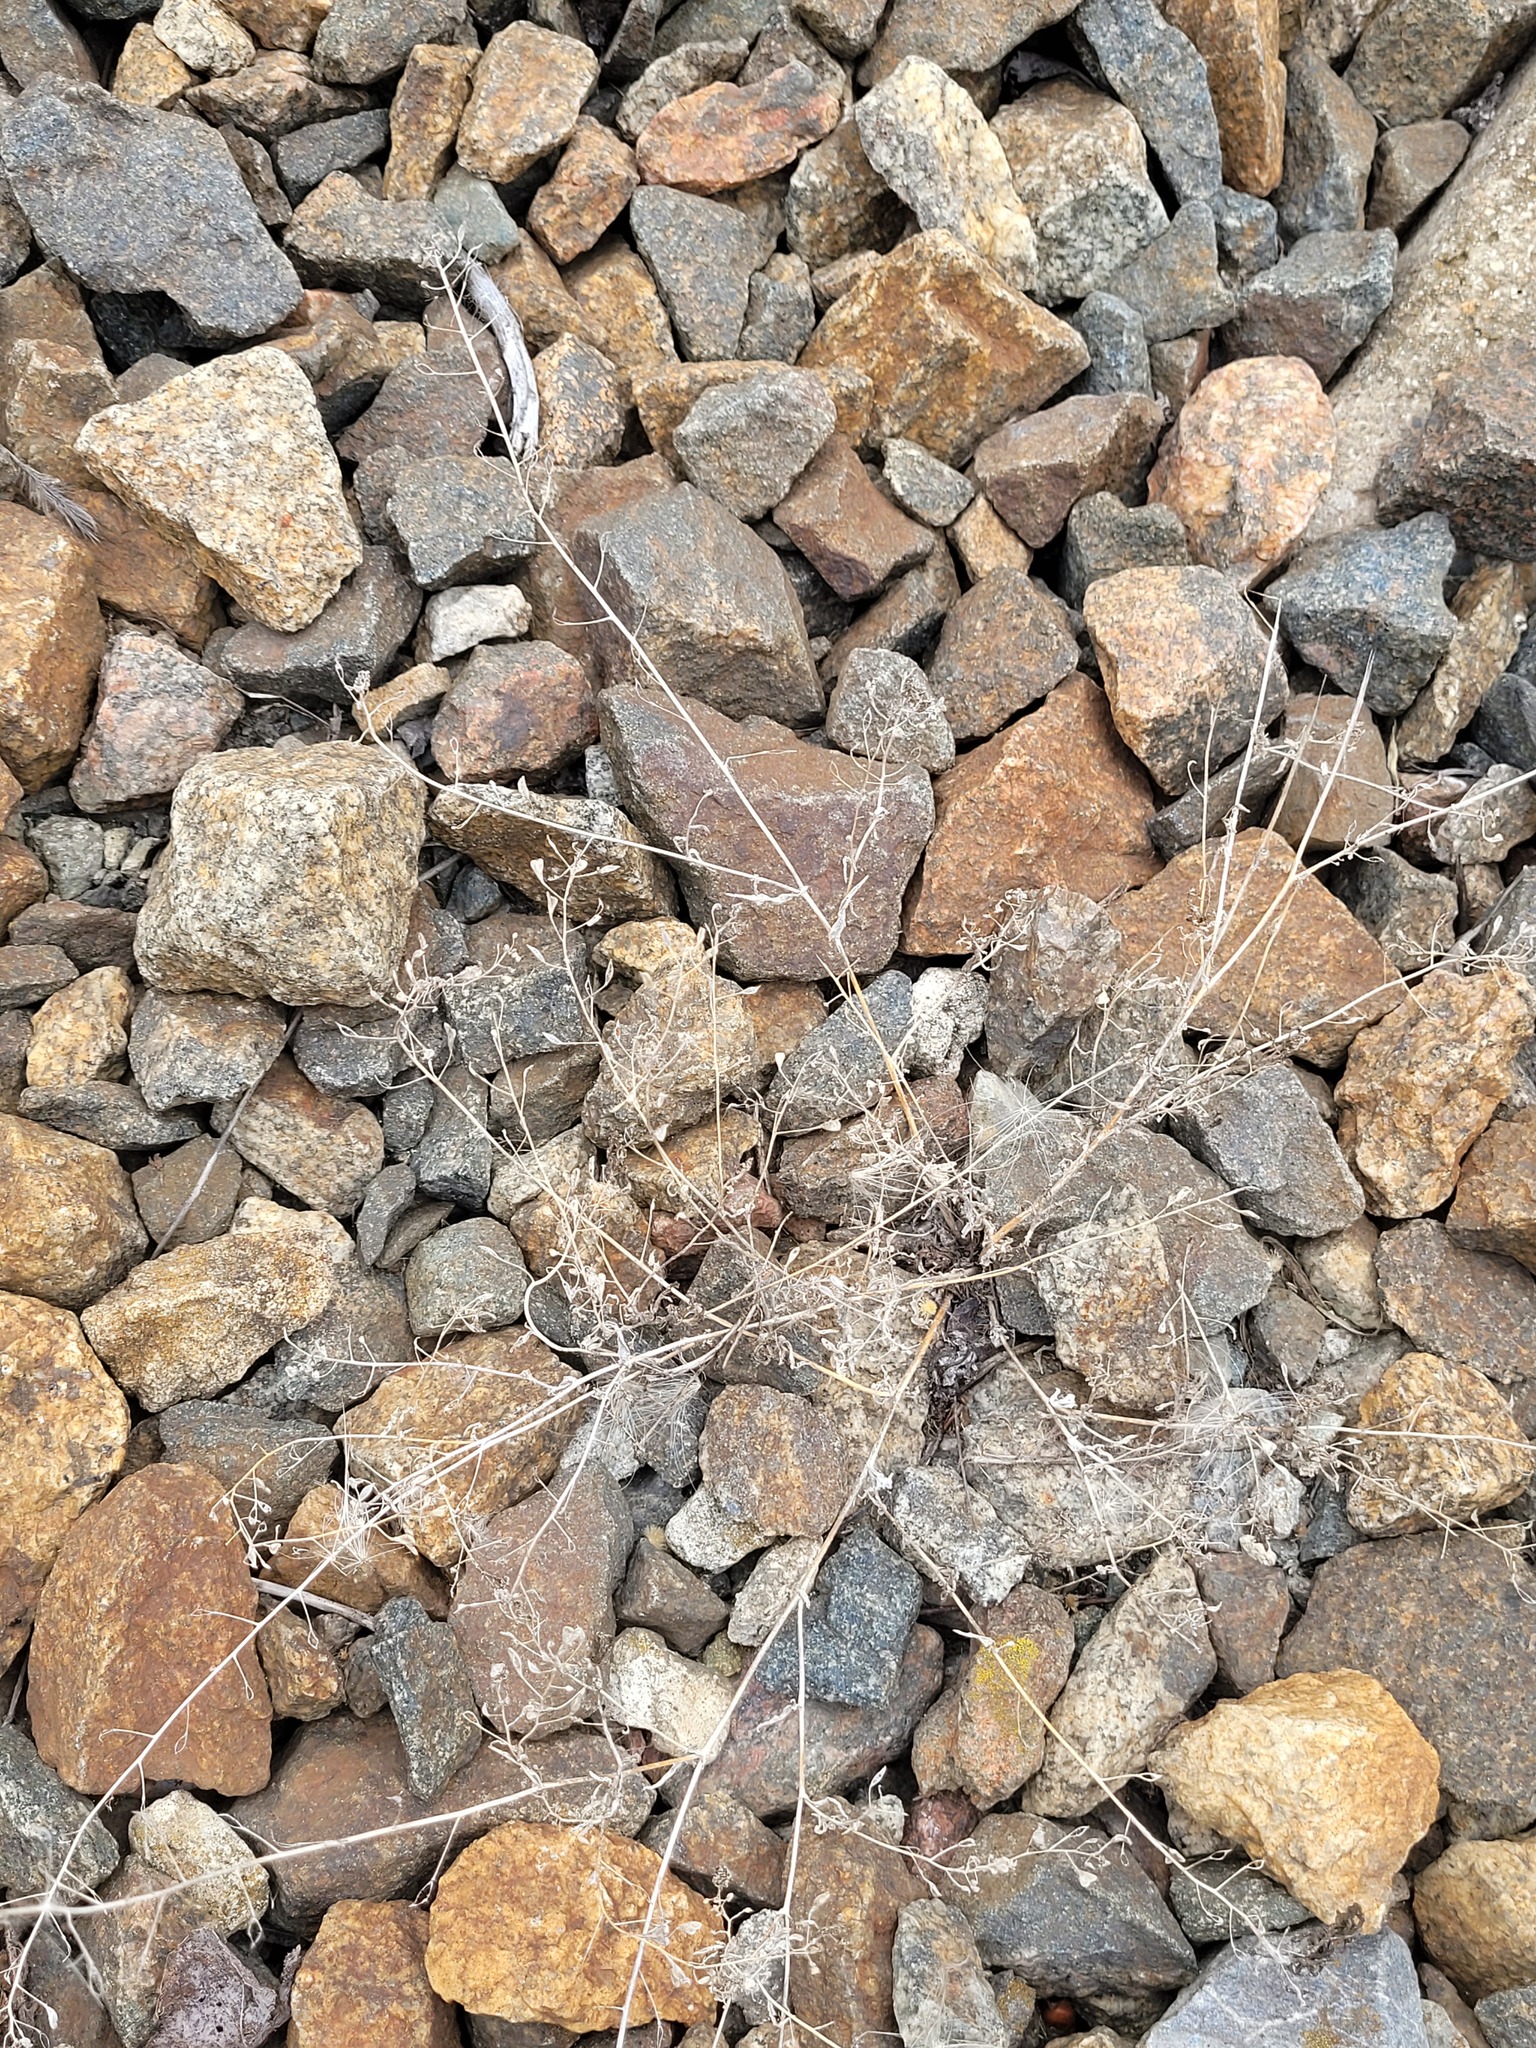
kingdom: Plantae
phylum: Tracheophyta
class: Magnoliopsida
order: Brassicales
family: Brassicaceae
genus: Capsella
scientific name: Capsella bursa-pastoris
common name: Shepherd's purse
